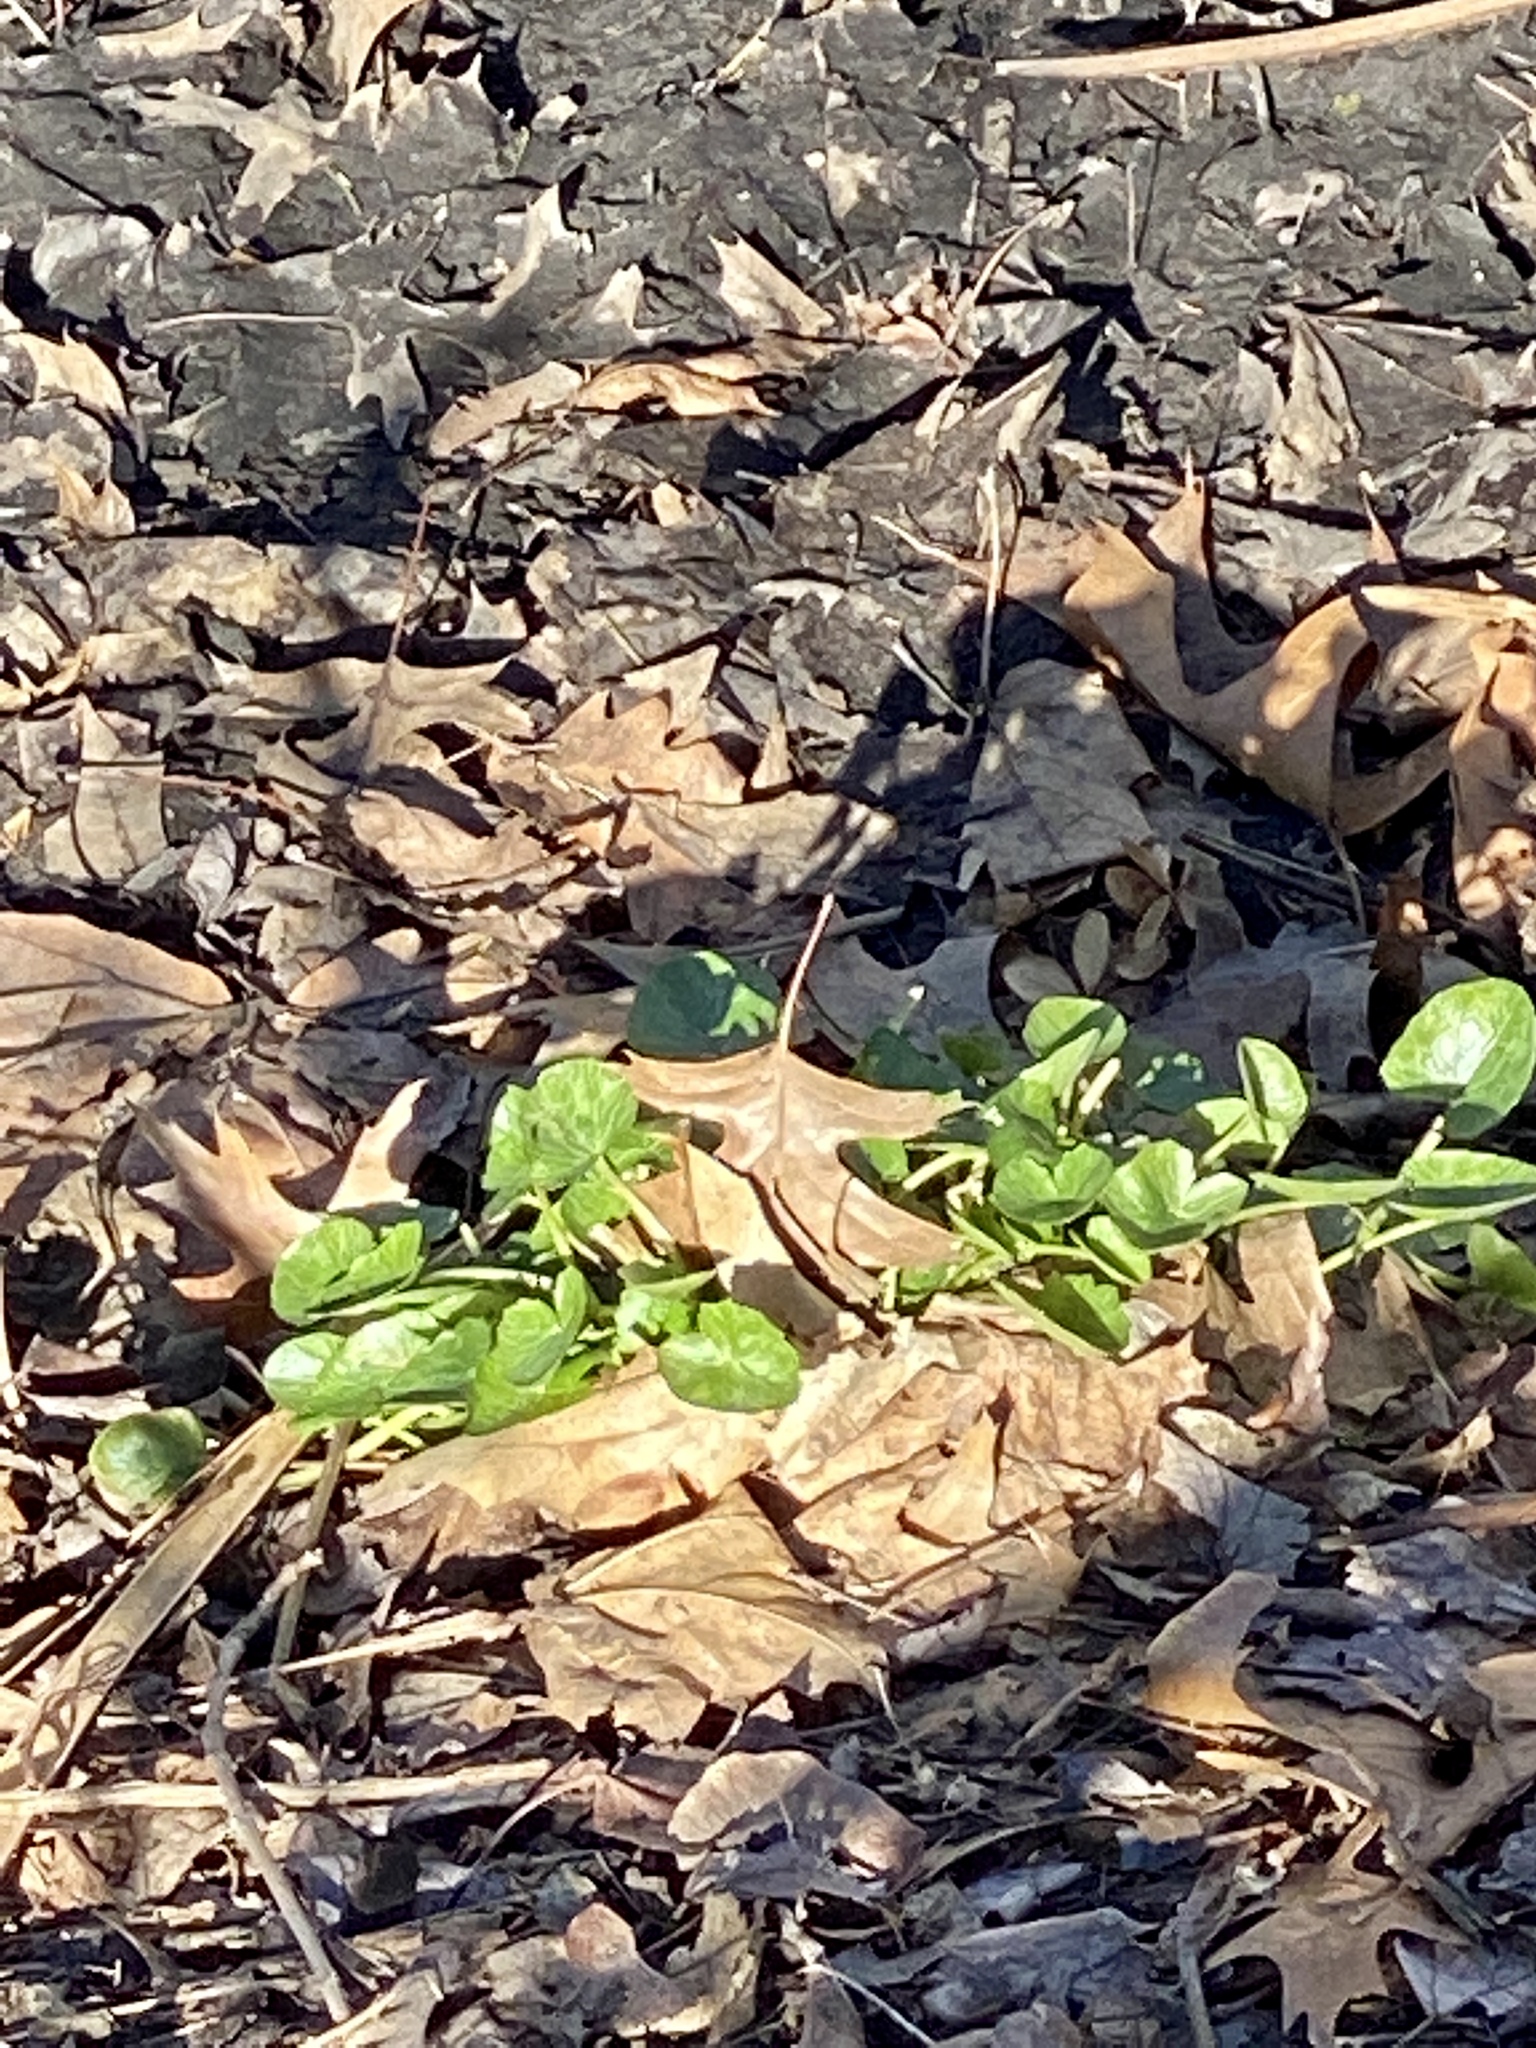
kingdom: Plantae
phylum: Tracheophyta
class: Magnoliopsida
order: Ranunculales
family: Ranunculaceae
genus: Ficaria
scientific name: Ficaria verna
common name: Lesser celandine
